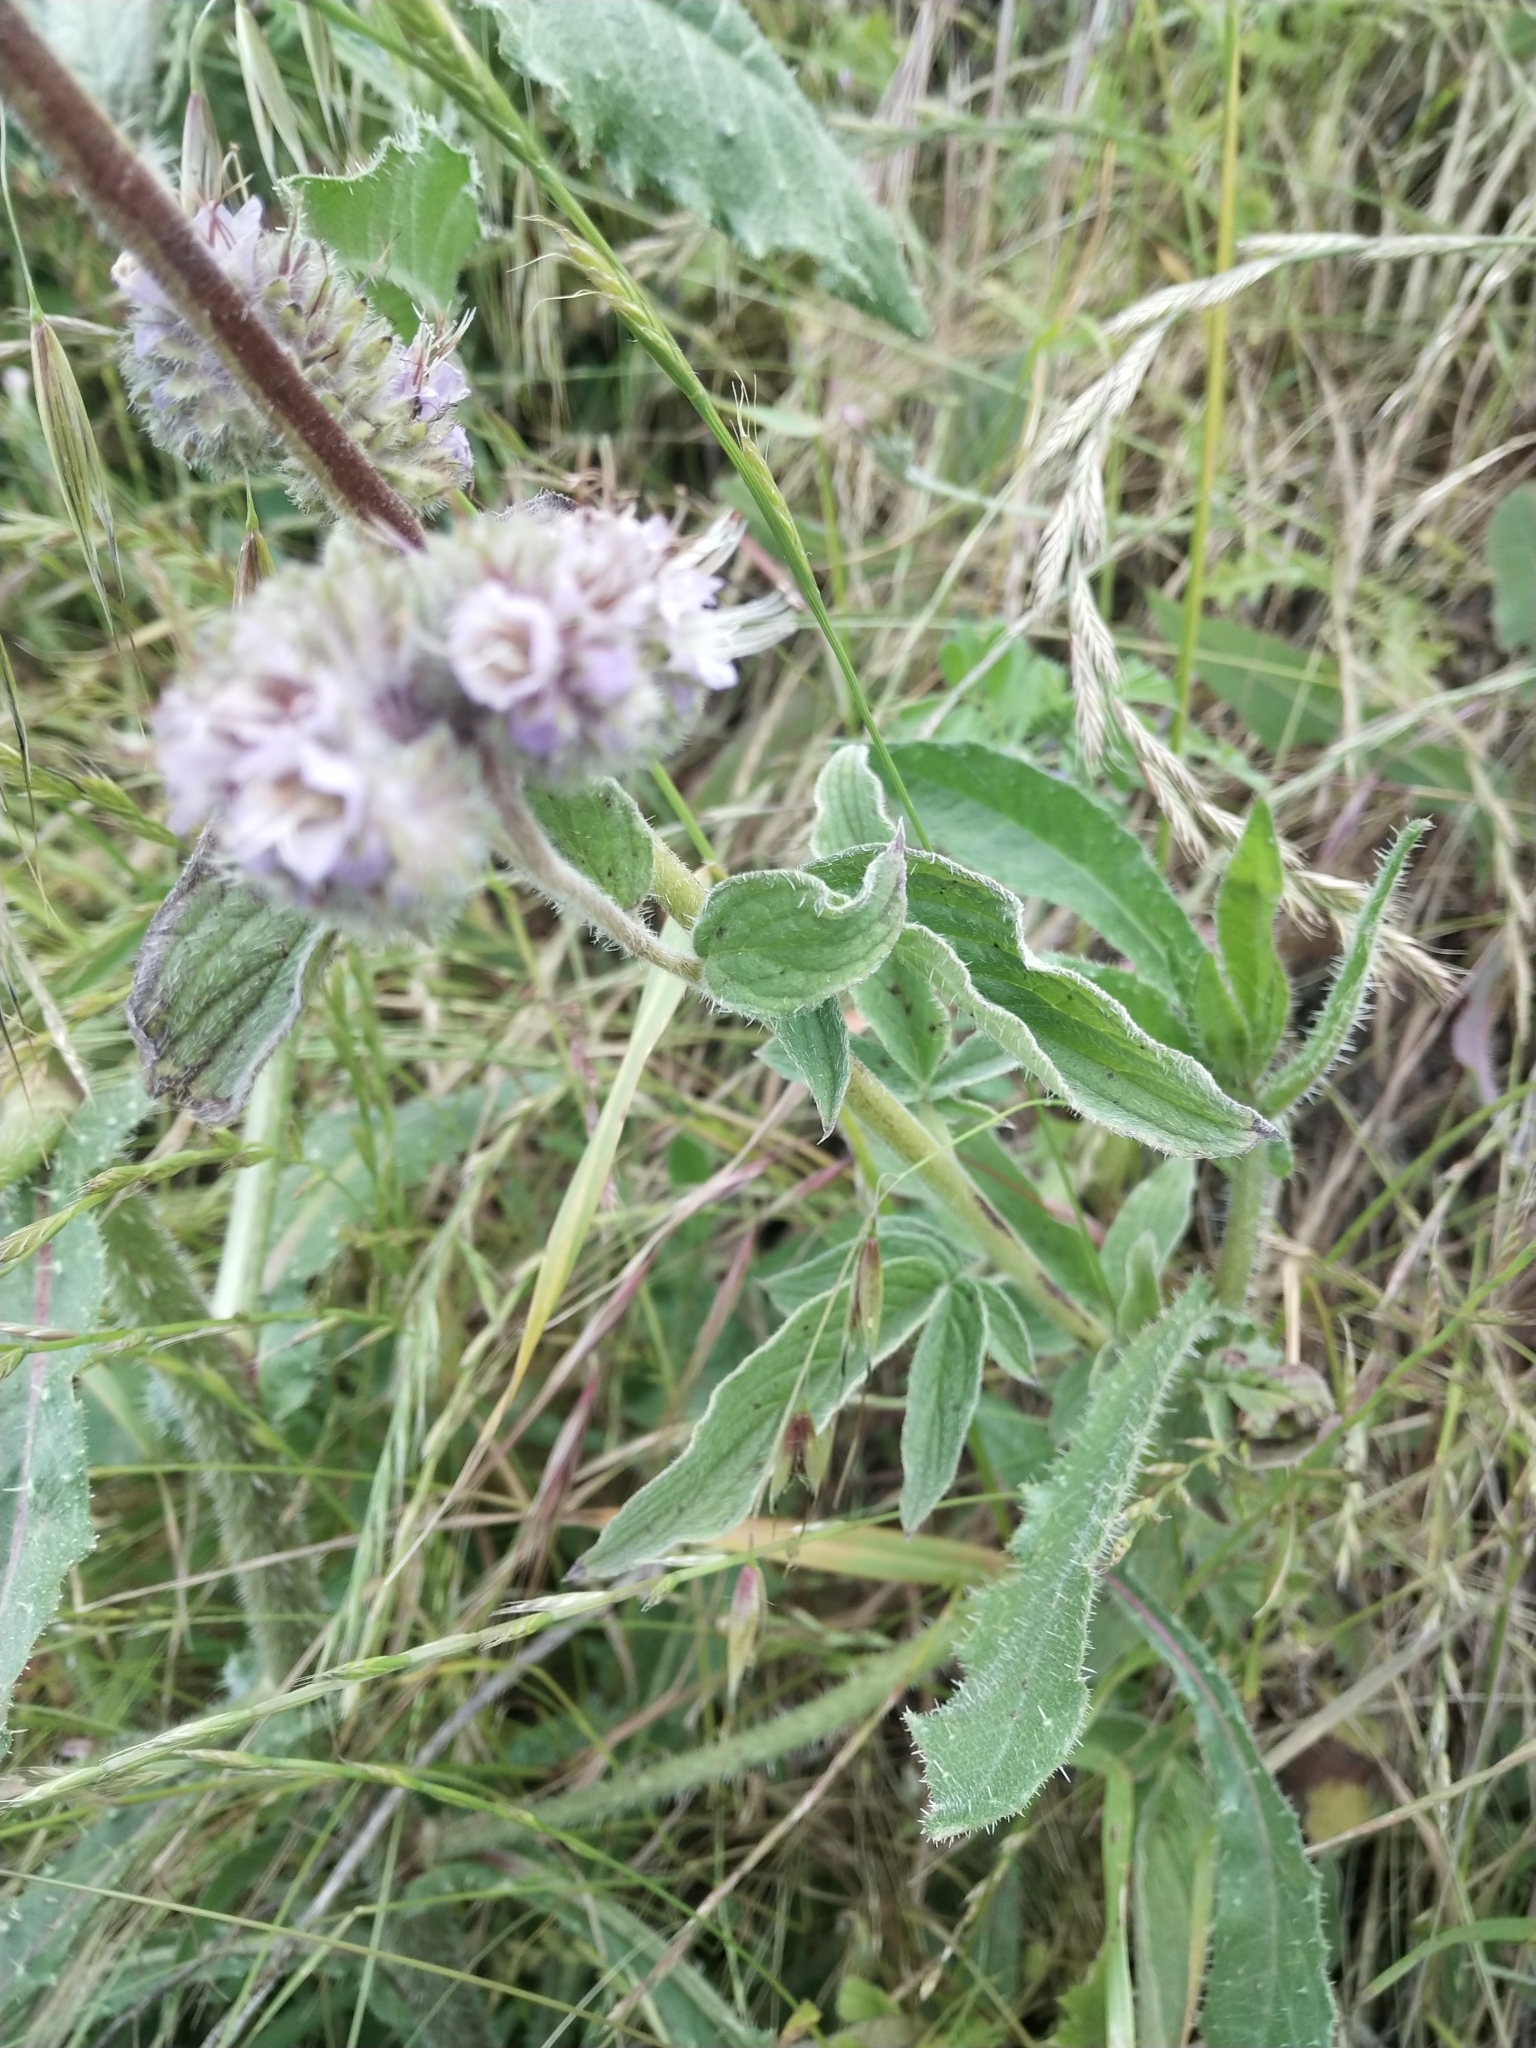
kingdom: Plantae
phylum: Tracheophyta
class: Magnoliopsida
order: Boraginales
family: Hydrophyllaceae
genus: Phacelia
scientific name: Phacelia californica
